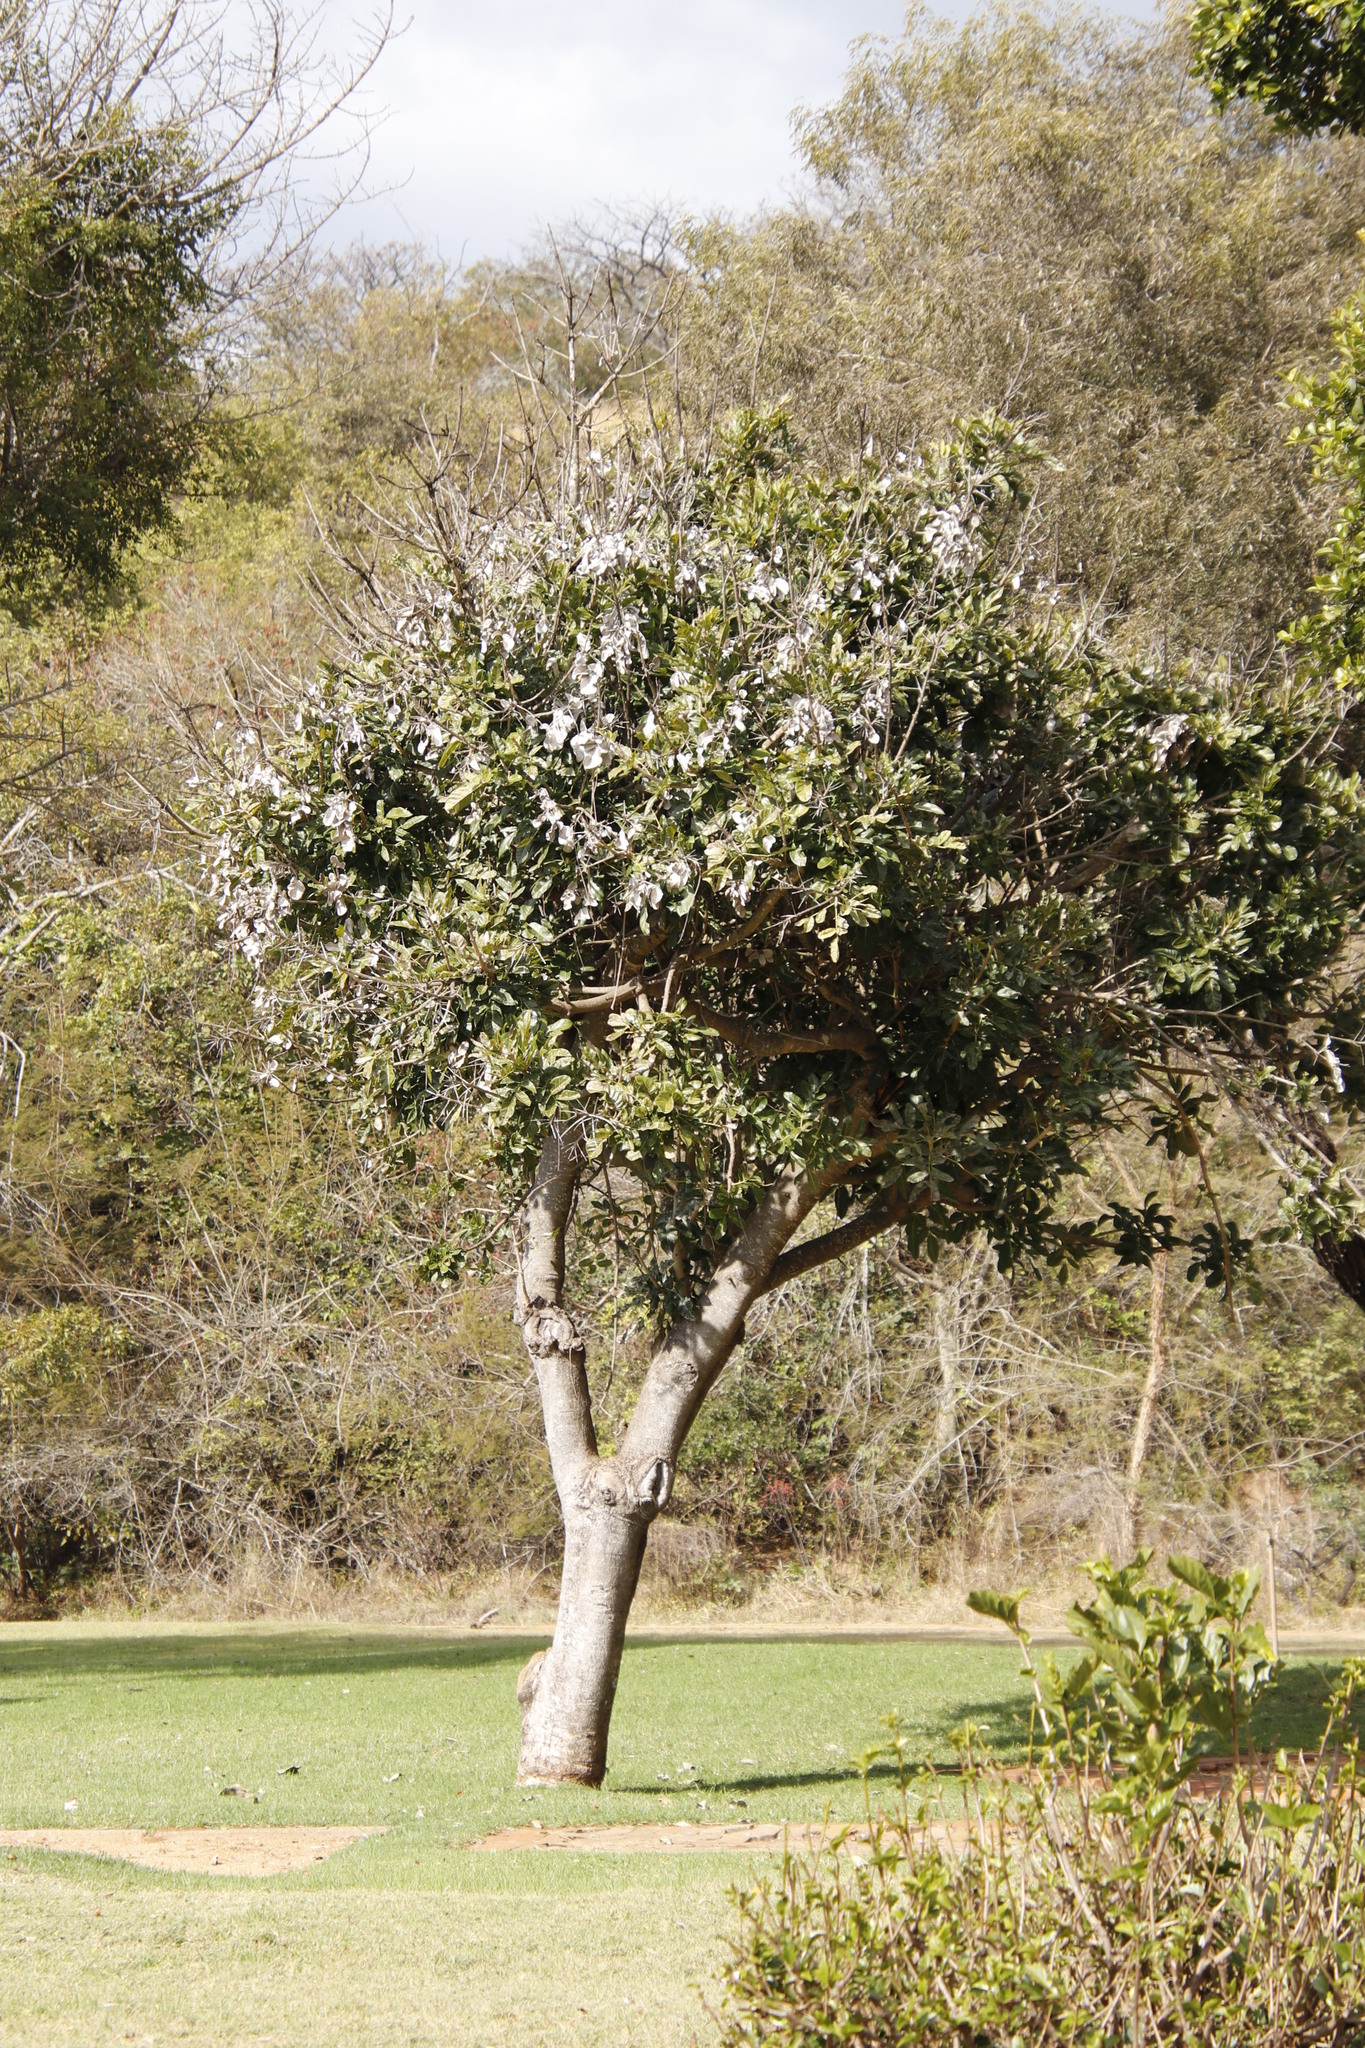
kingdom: Plantae
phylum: Tracheophyta
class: Magnoliopsida
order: Lamiales
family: Bignoniaceae
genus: Kigelia
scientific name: Kigelia africana
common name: Sausage tree
